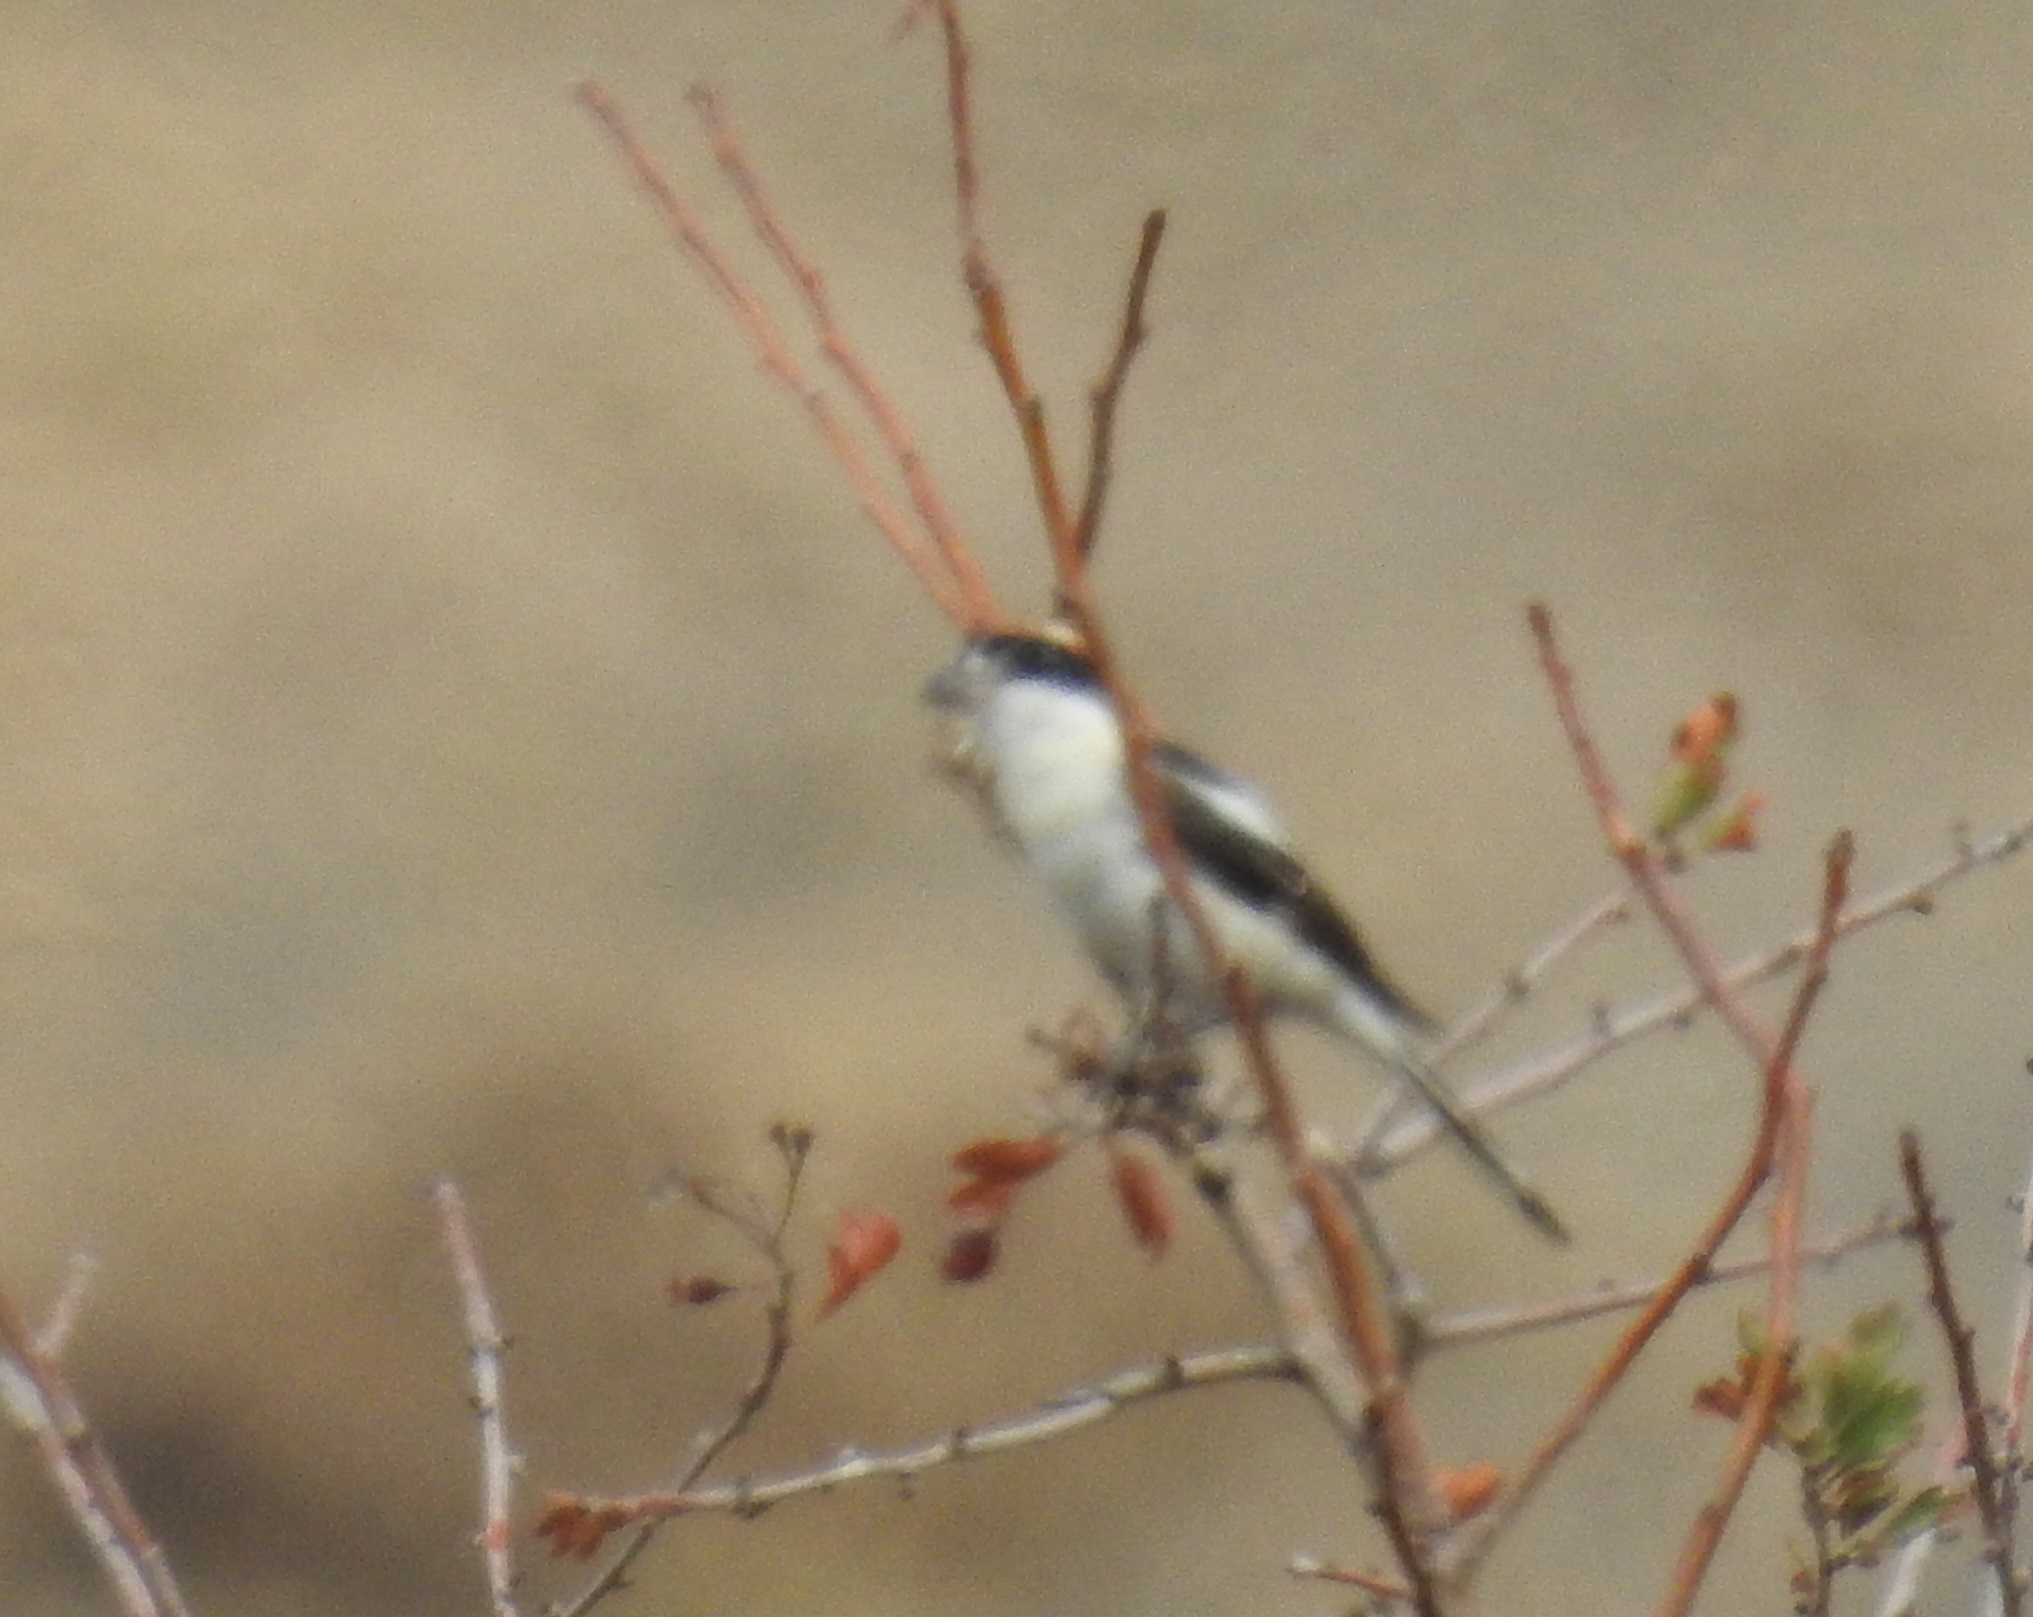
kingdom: Animalia
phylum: Chordata
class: Aves
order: Passeriformes
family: Laniidae
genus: Lanius
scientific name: Lanius senator
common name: Woodchat shrike
